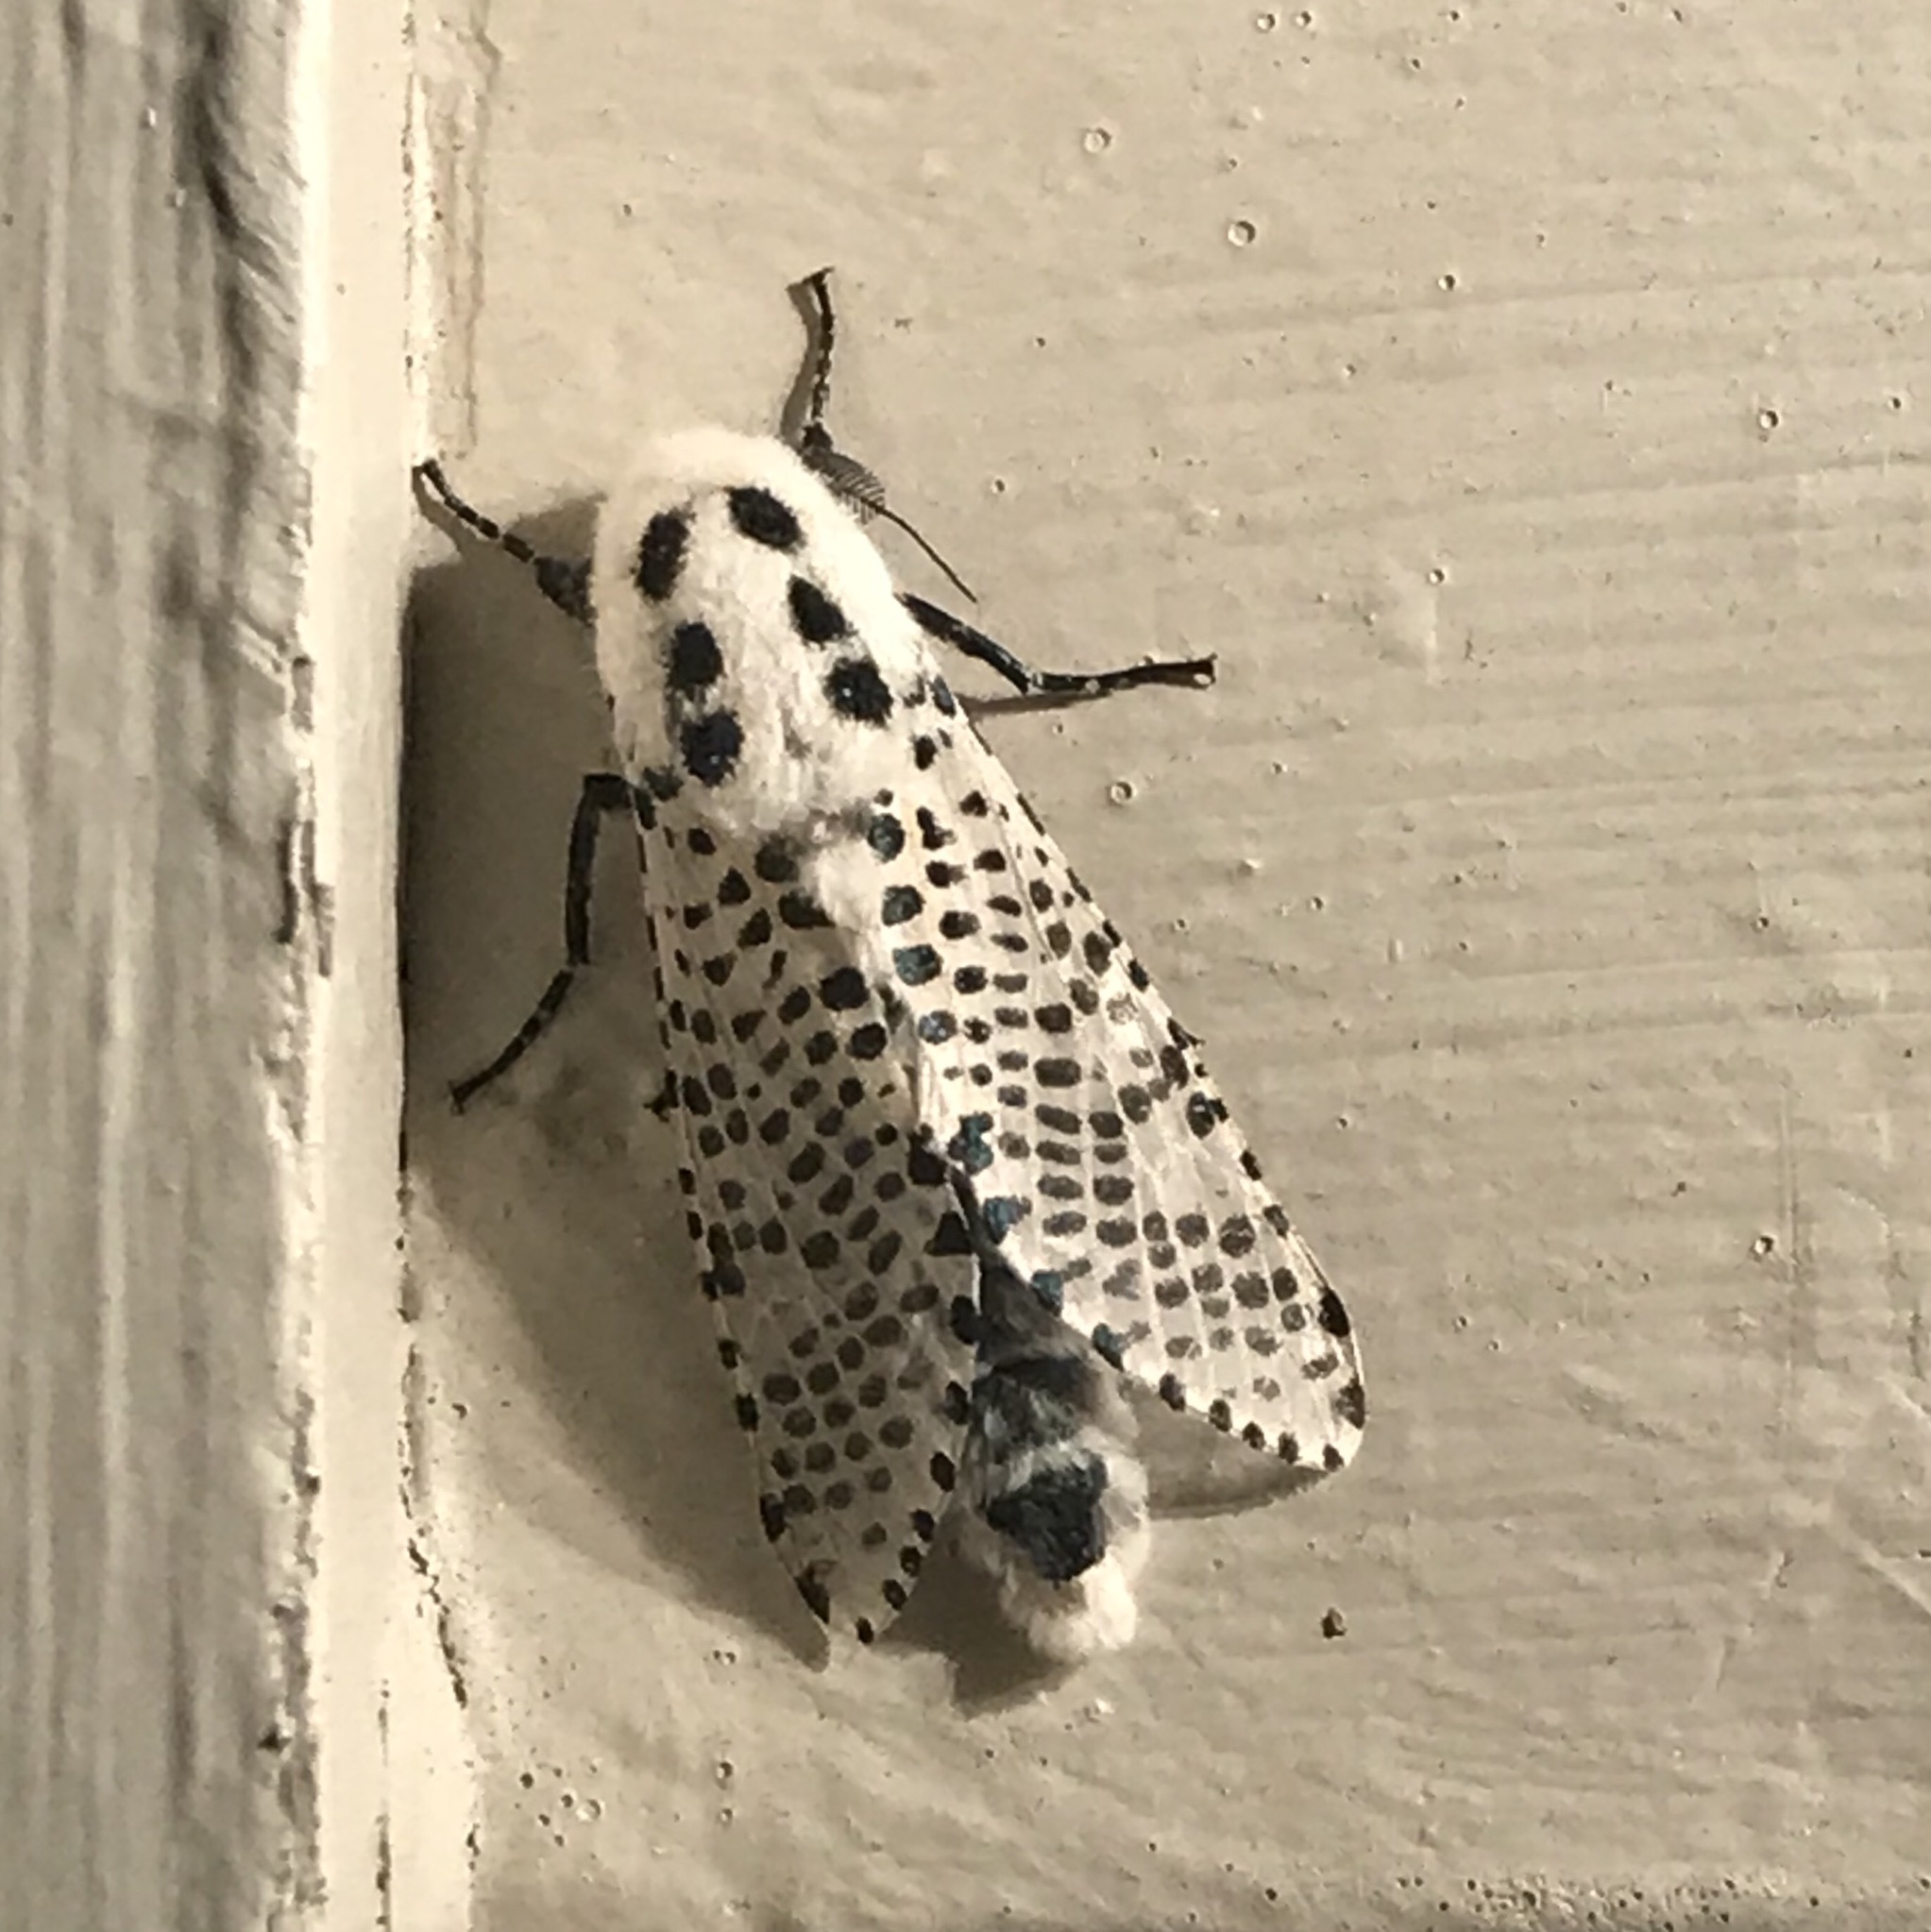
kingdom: Animalia
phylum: Arthropoda
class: Insecta
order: Lepidoptera
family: Cossidae
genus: Zeuzera
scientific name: Zeuzera pyrina
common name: Leopard moth
